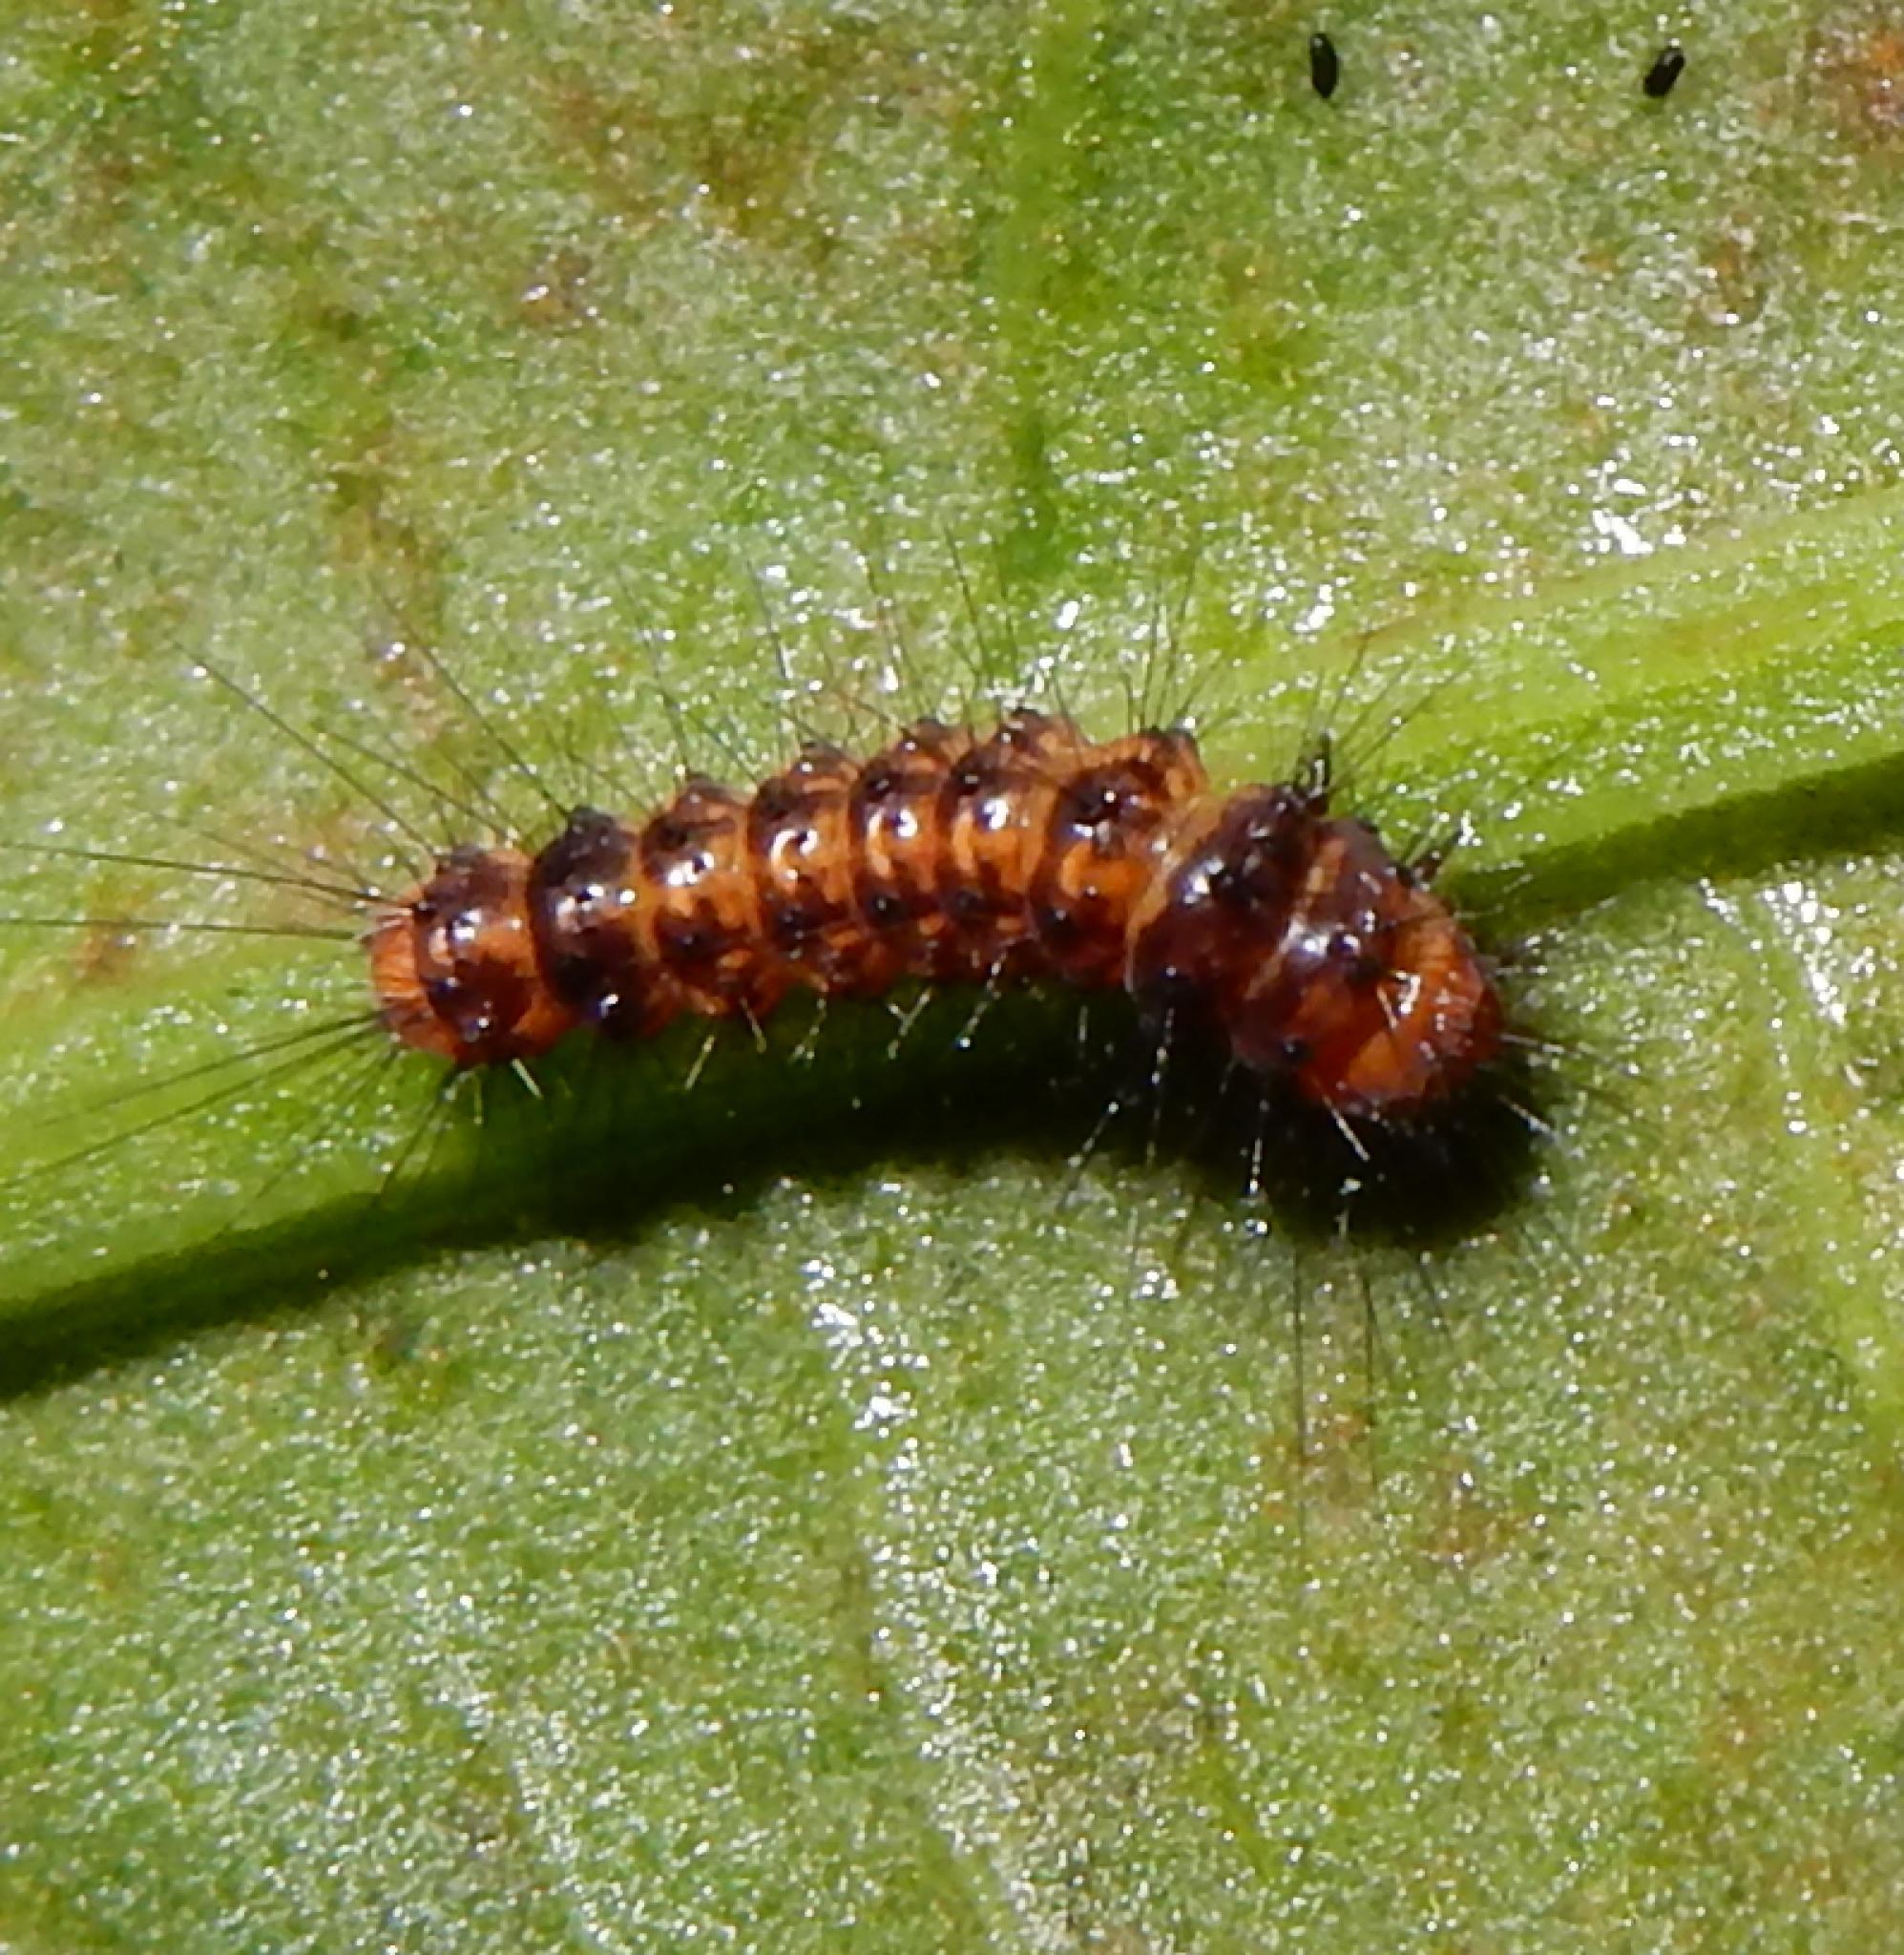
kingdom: Animalia
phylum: Arthropoda
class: Insecta
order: Lepidoptera
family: Erebidae
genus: Afromurzinia
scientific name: Afromurzinia lutescens
